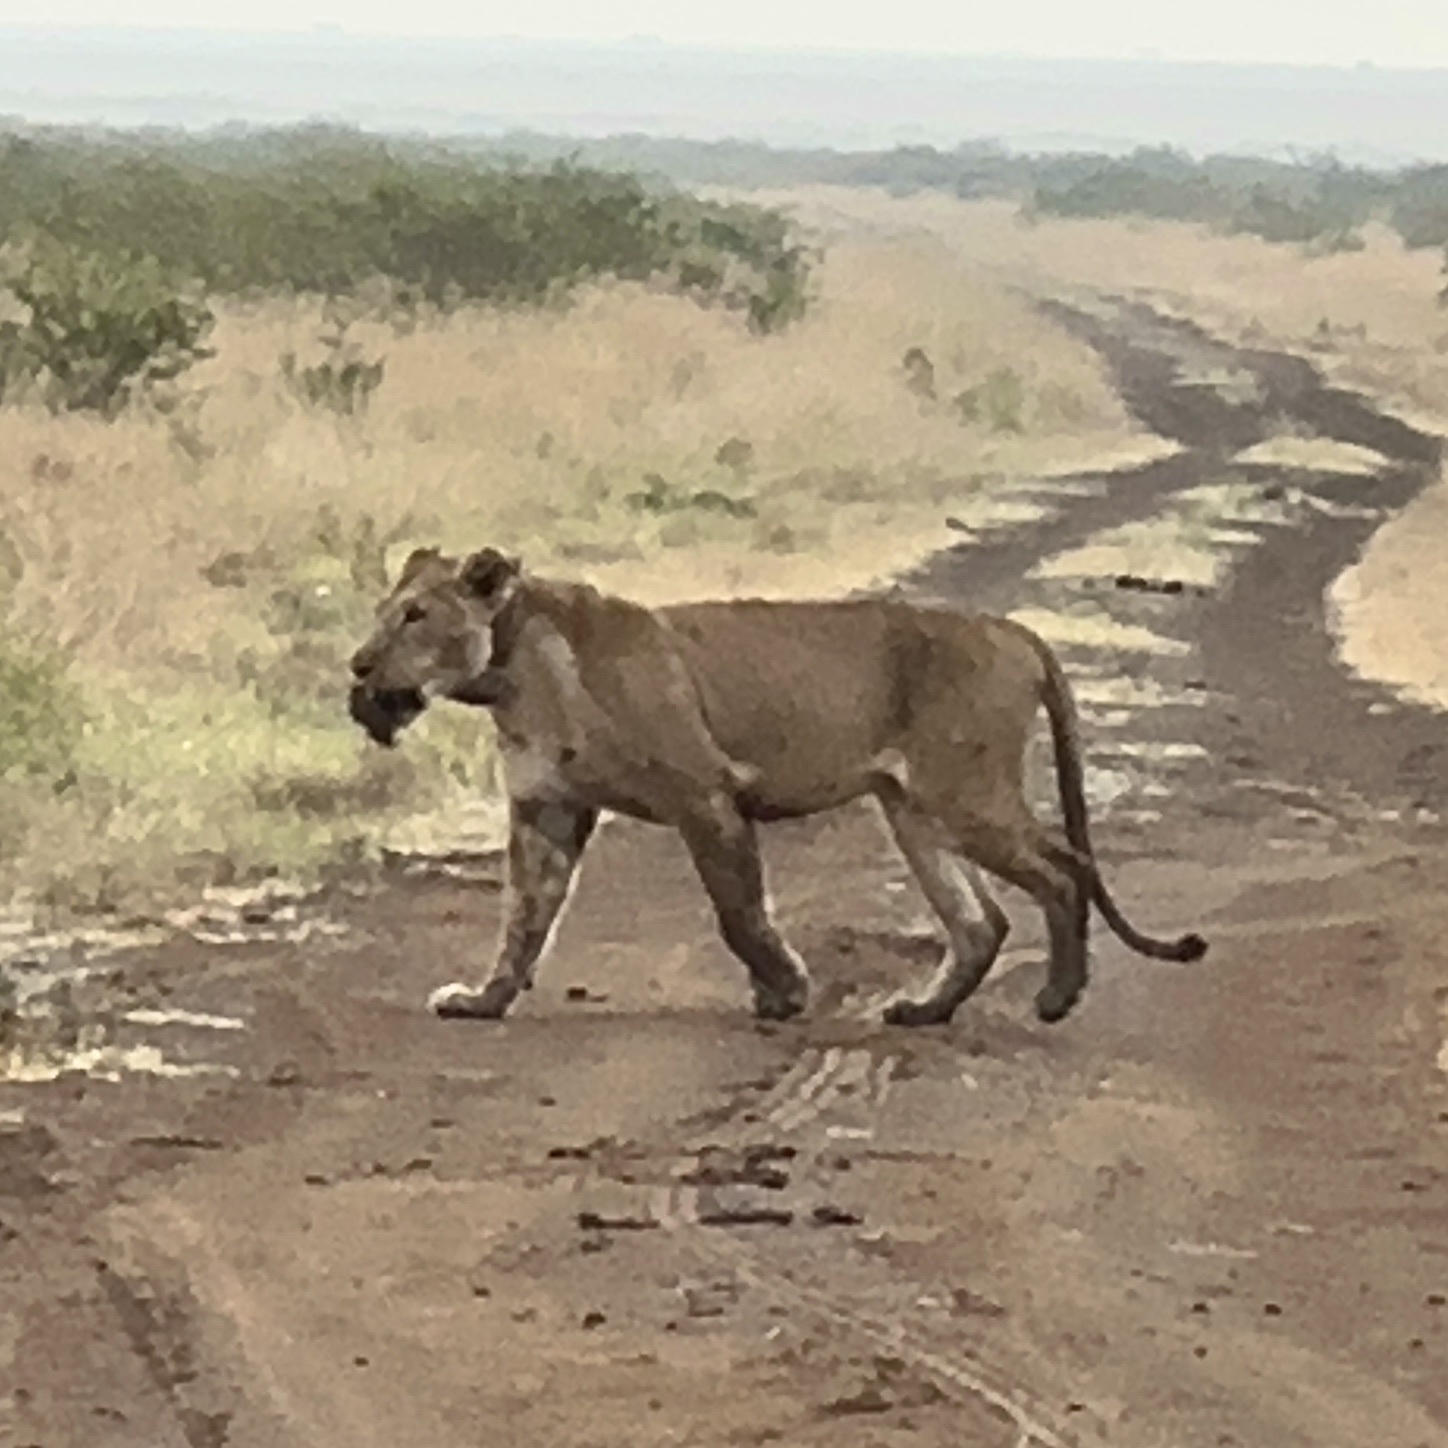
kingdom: Animalia
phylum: Chordata
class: Mammalia
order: Carnivora
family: Felidae
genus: Panthera
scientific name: Panthera leo
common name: Lion
